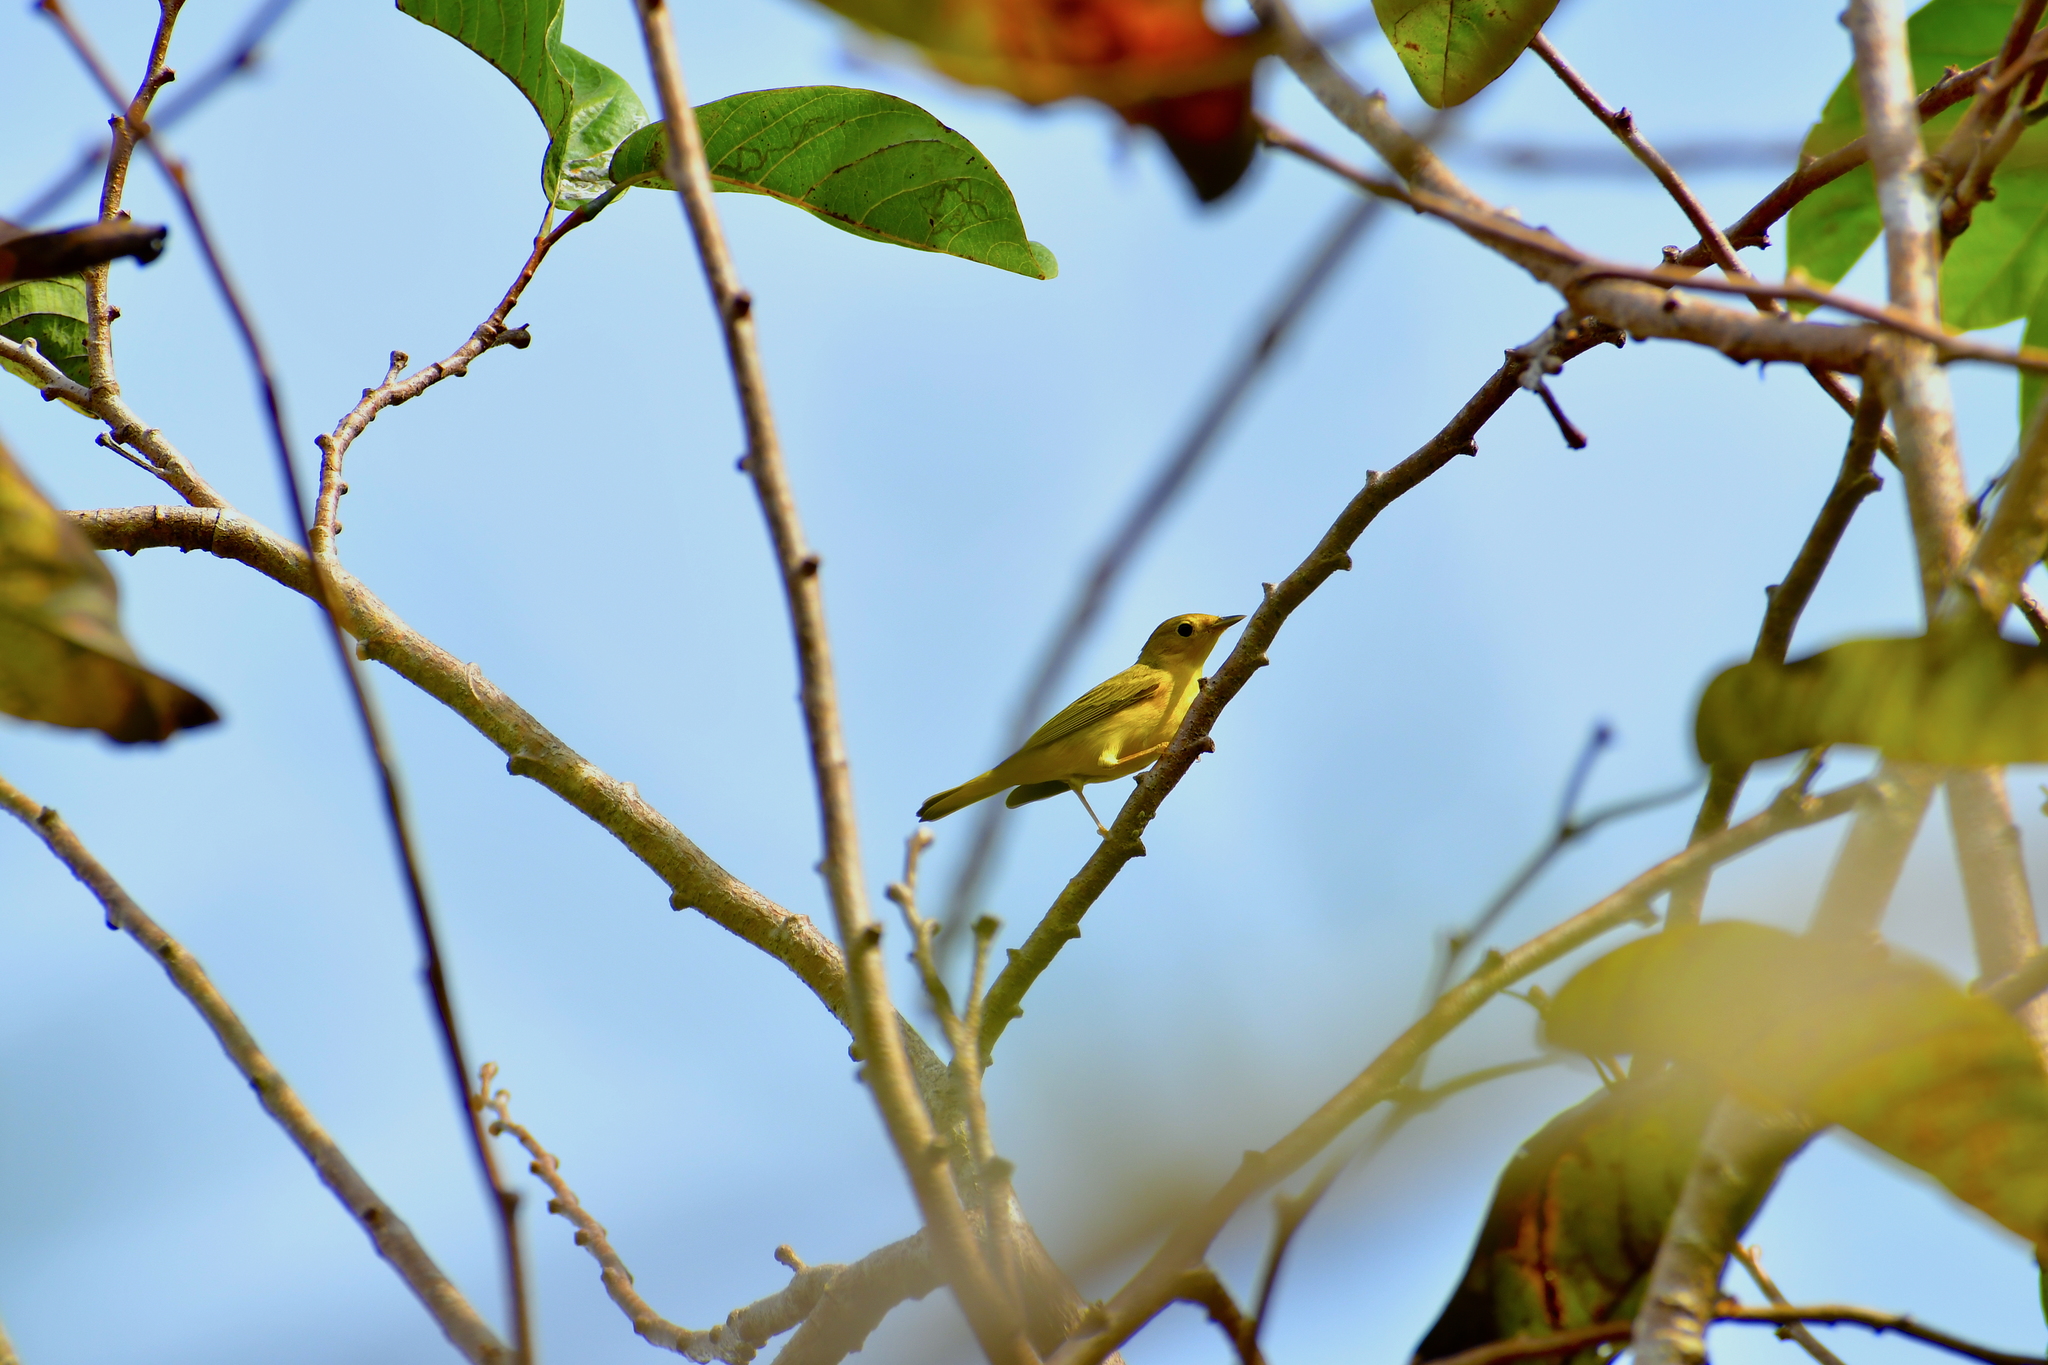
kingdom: Animalia
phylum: Chordata
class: Aves
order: Passeriformes
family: Parulidae
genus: Setophaga
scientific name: Setophaga petechia
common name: Yellow warbler
